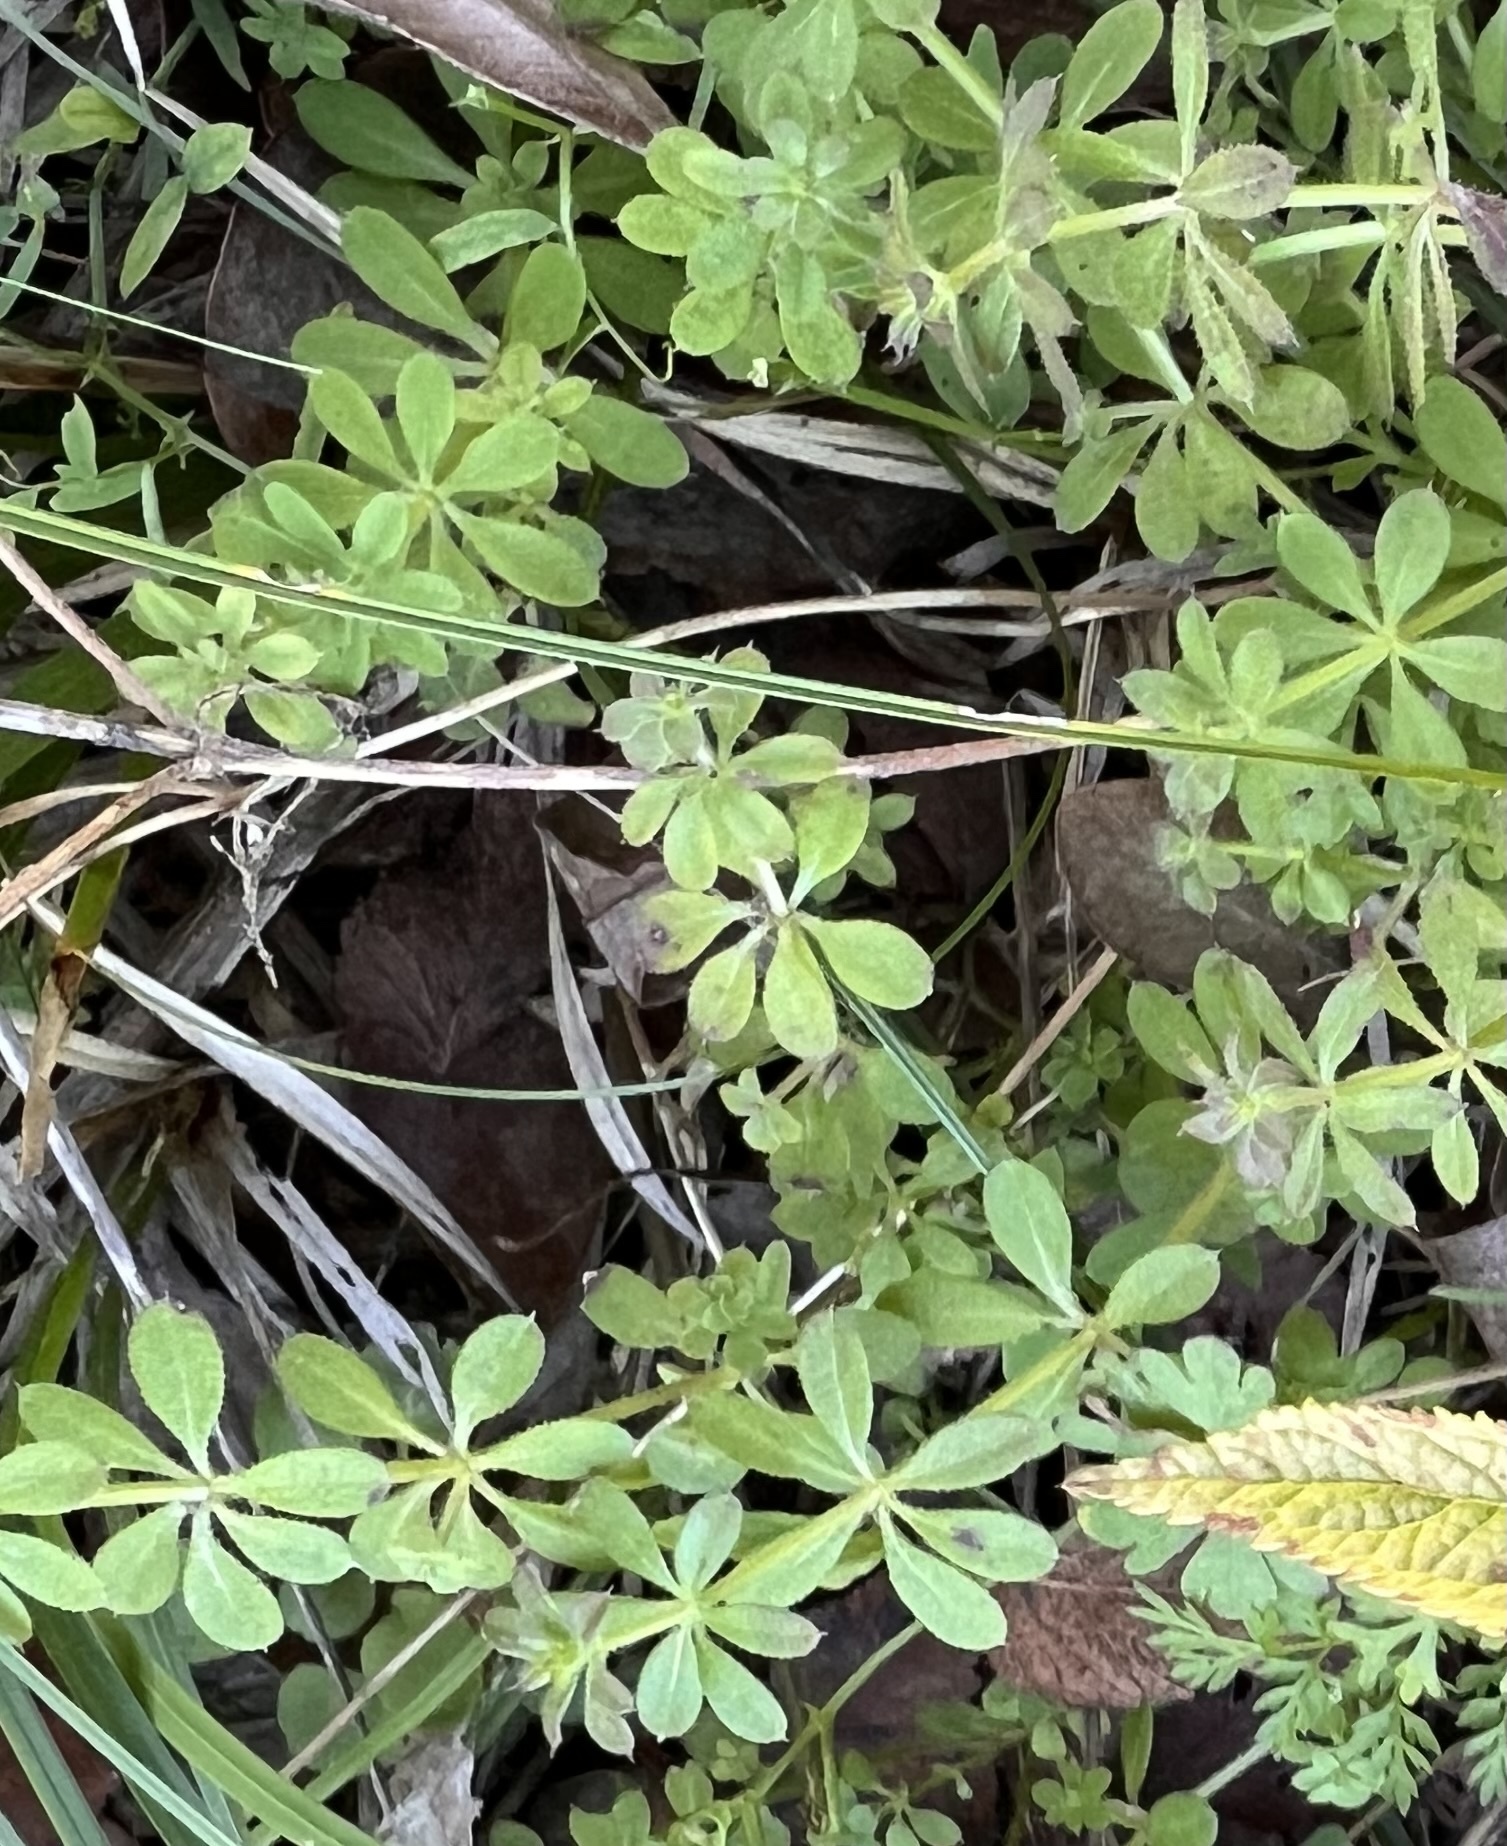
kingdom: Plantae
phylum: Tracheophyta
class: Magnoliopsida
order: Gentianales
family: Rubiaceae
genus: Galium
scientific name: Galium aparine
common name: Cleavers
